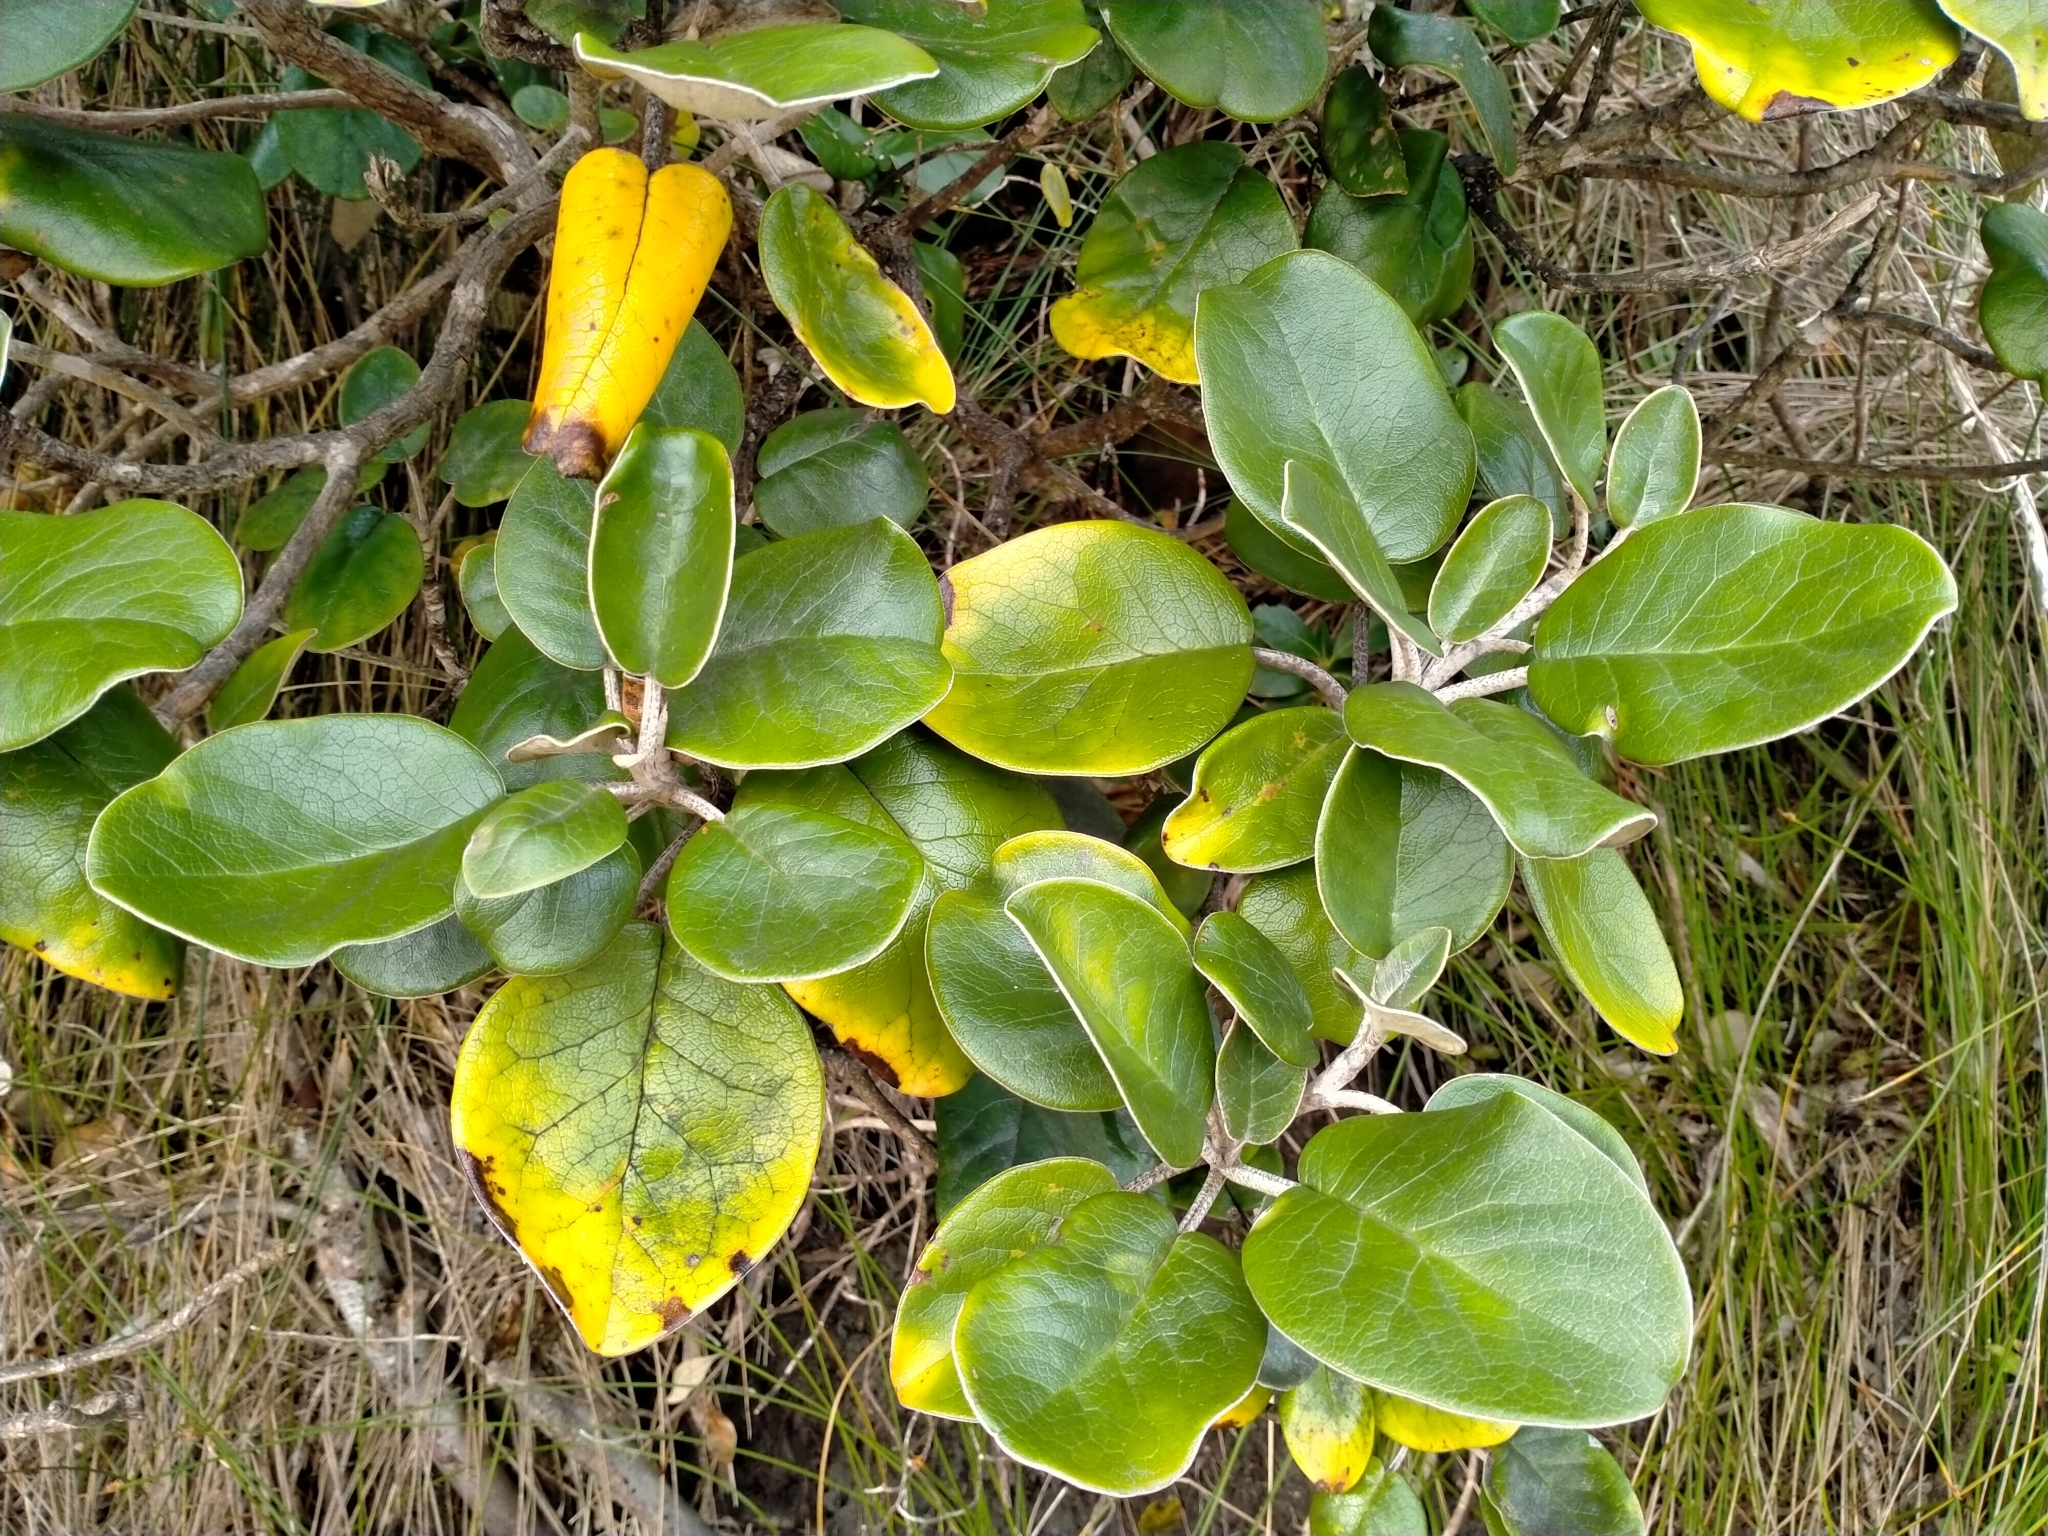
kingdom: Plantae
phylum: Tracheophyta
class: Magnoliopsida
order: Asterales
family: Asteraceae
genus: Brachyglottis
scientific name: Brachyglottis rotundifolia
